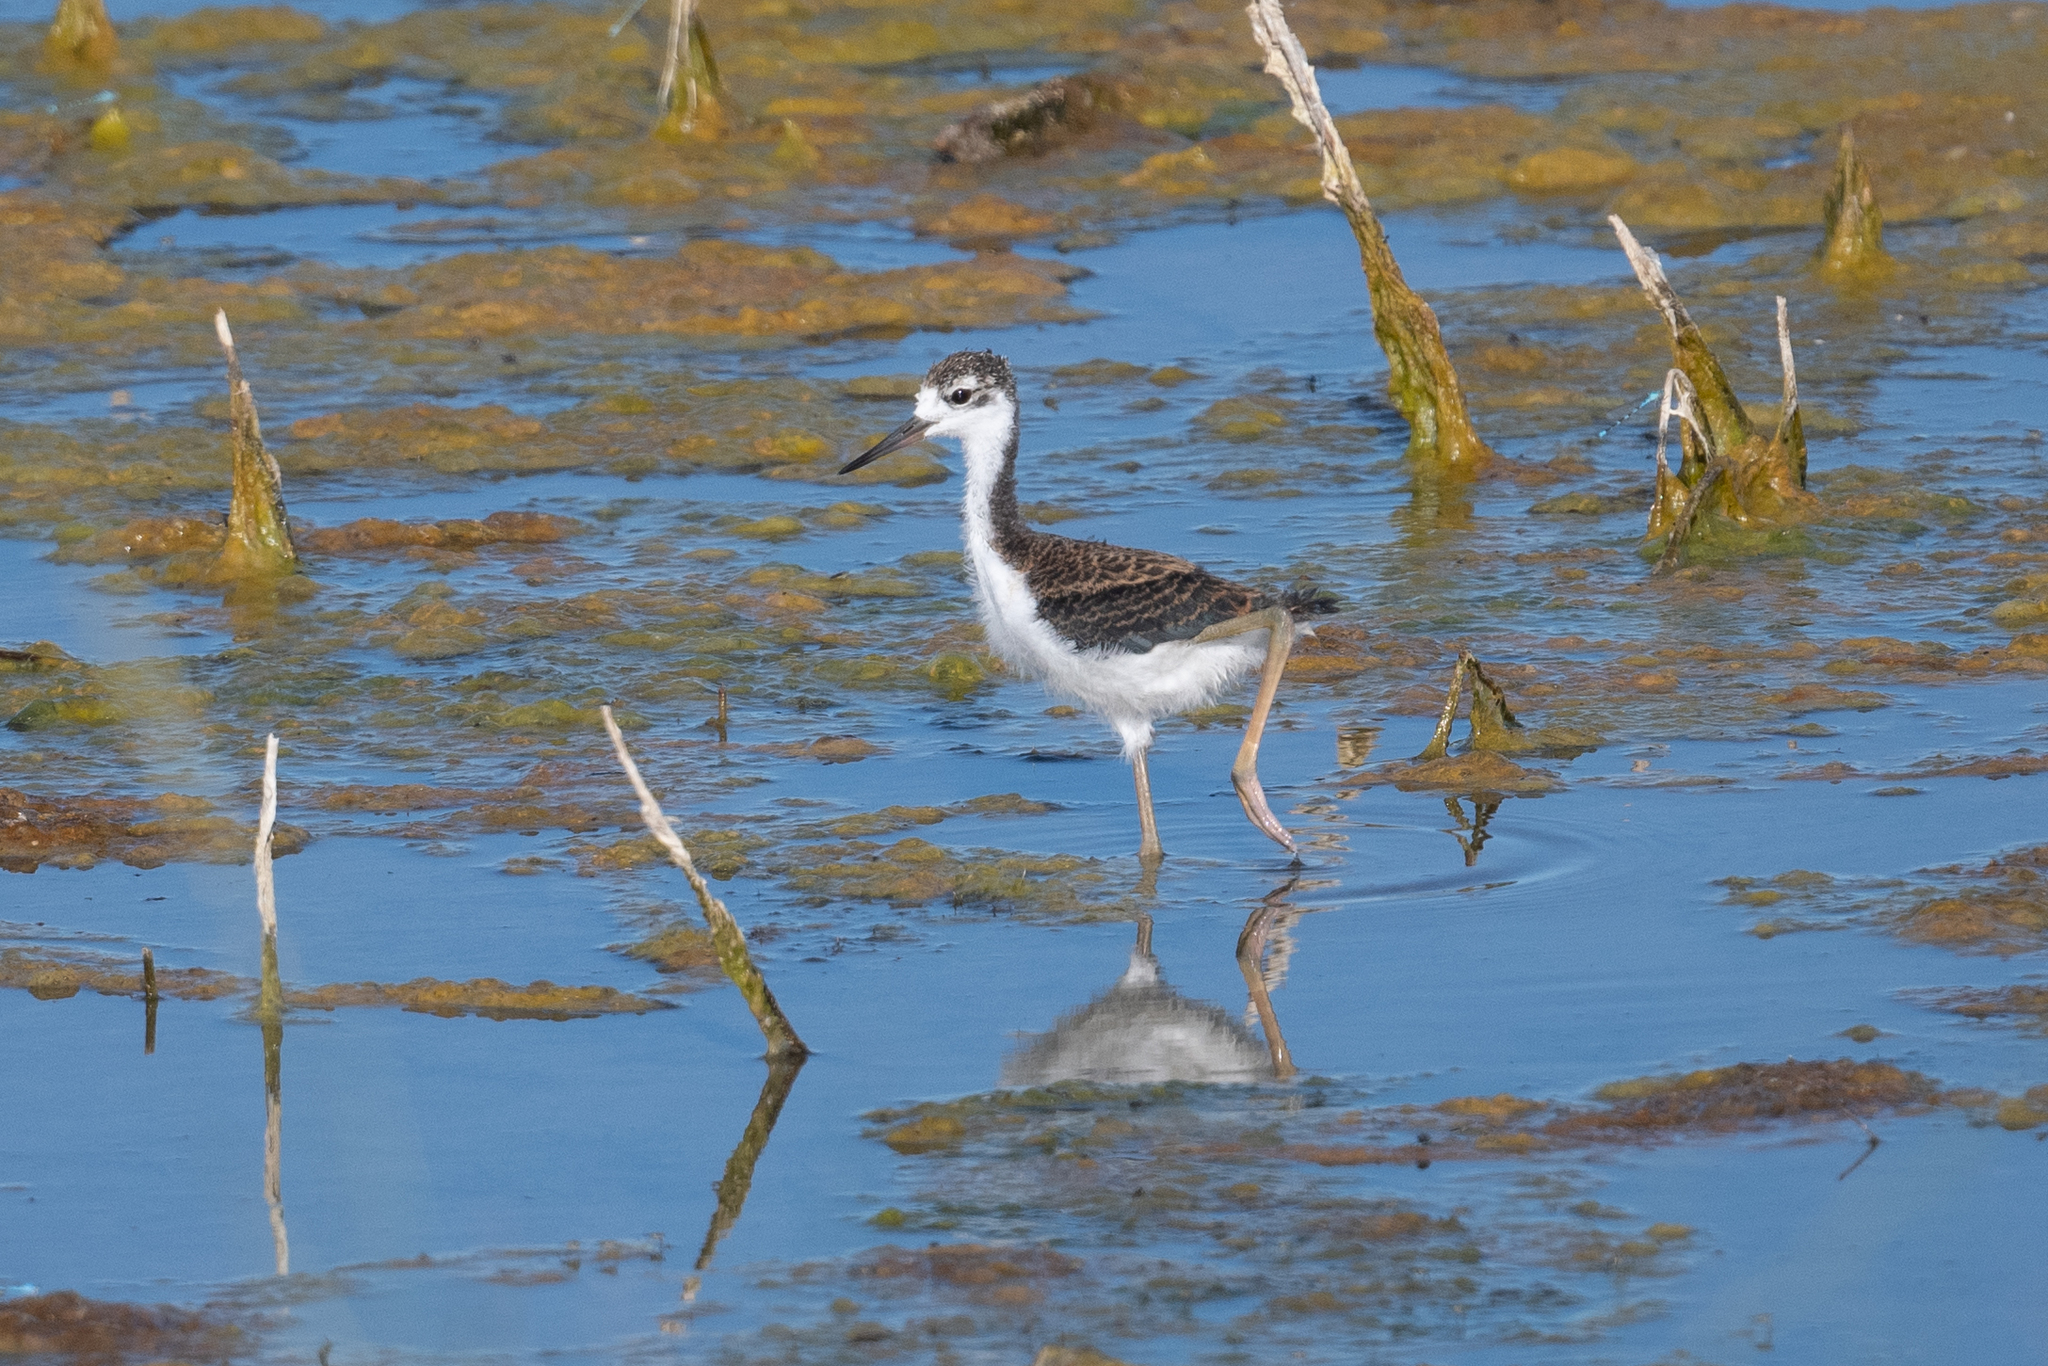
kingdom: Animalia
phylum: Chordata
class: Aves
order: Charadriiformes
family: Recurvirostridae
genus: Himantopus
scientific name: Himantopus mexicanus
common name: Black-necked stilt
